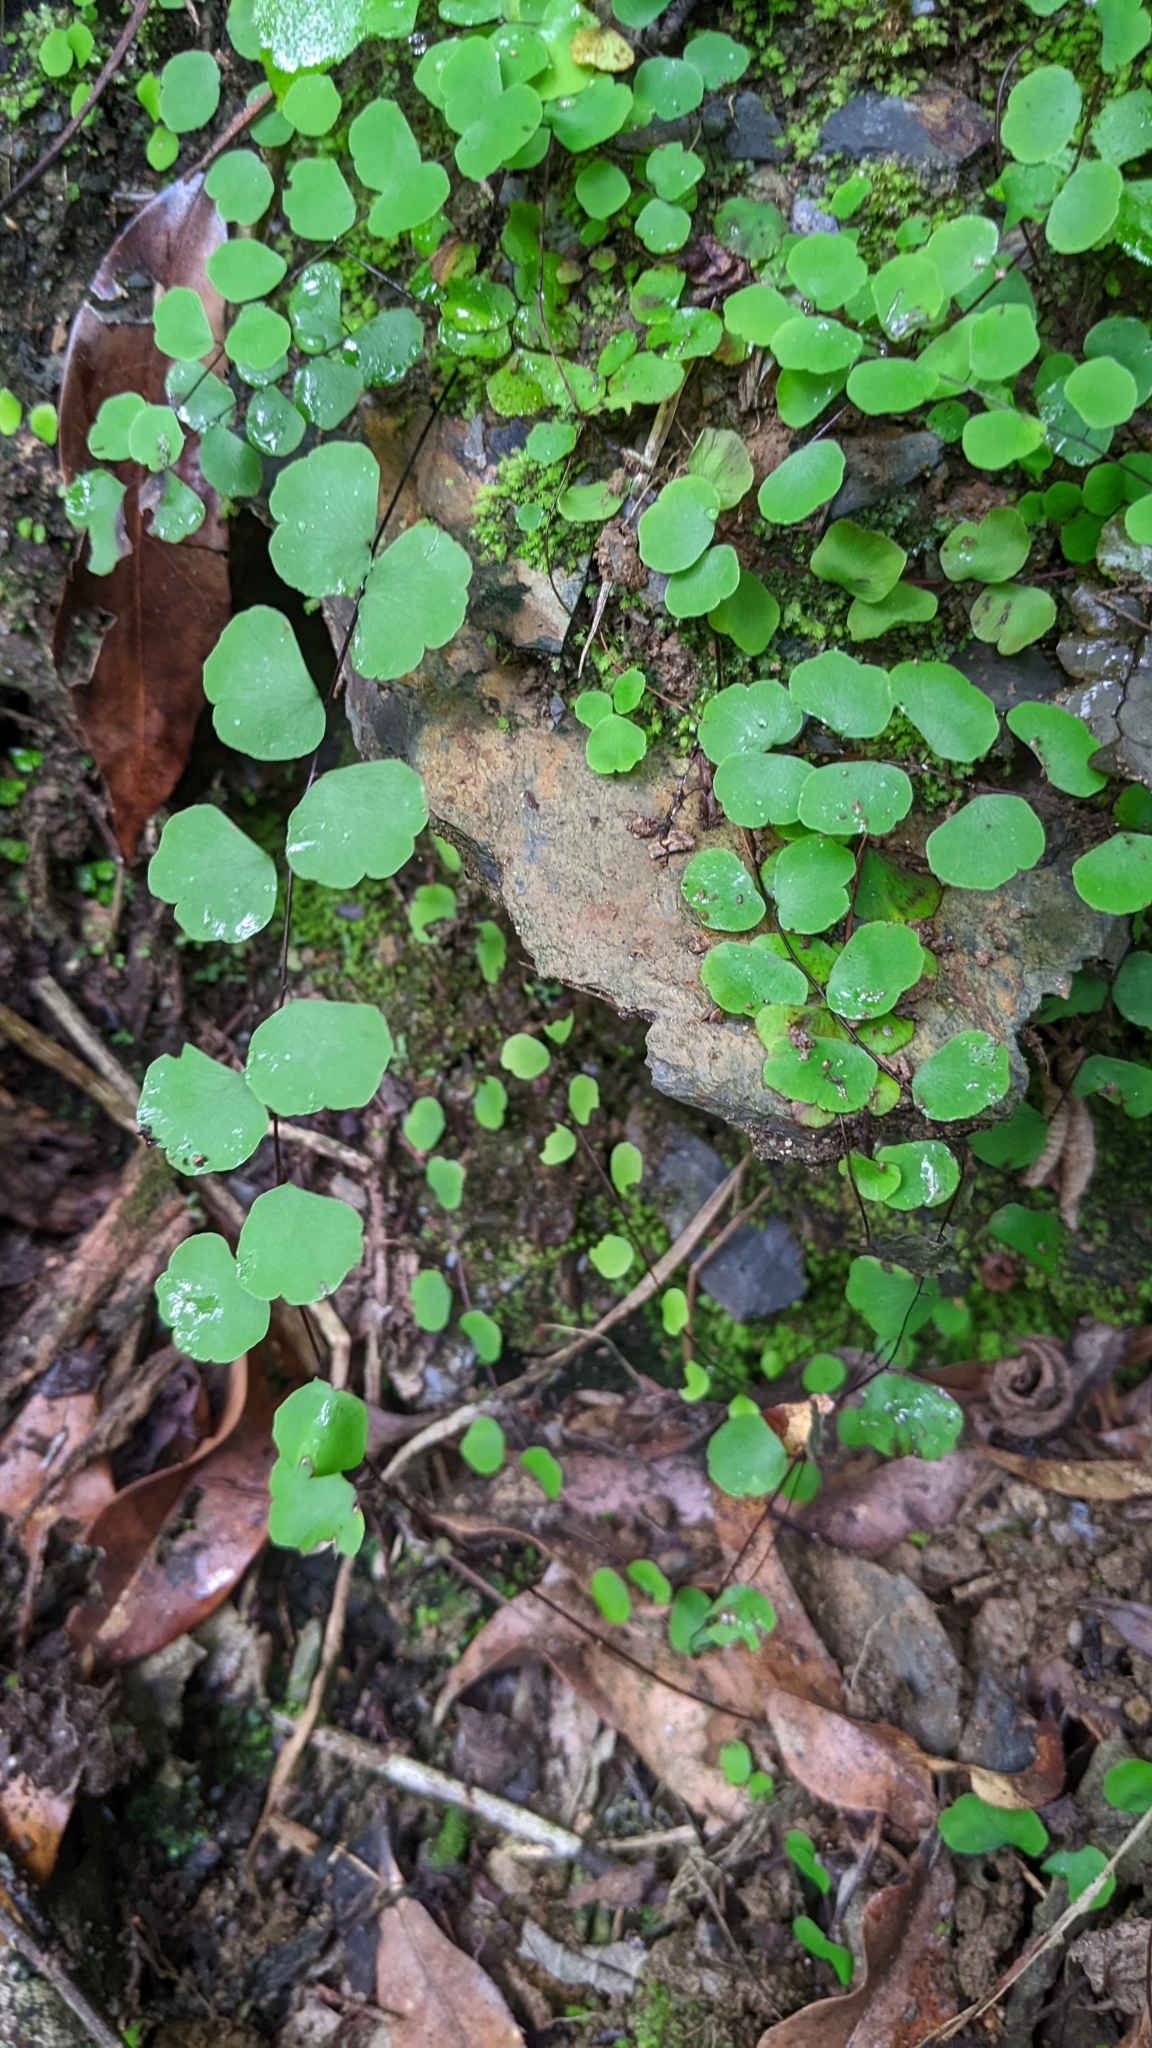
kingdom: Plantae
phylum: Tracheophyta
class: Polypodiopsida
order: Polypodiales
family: Pteridaceae
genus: Adiantum
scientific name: Adiantum capillus-junonis
